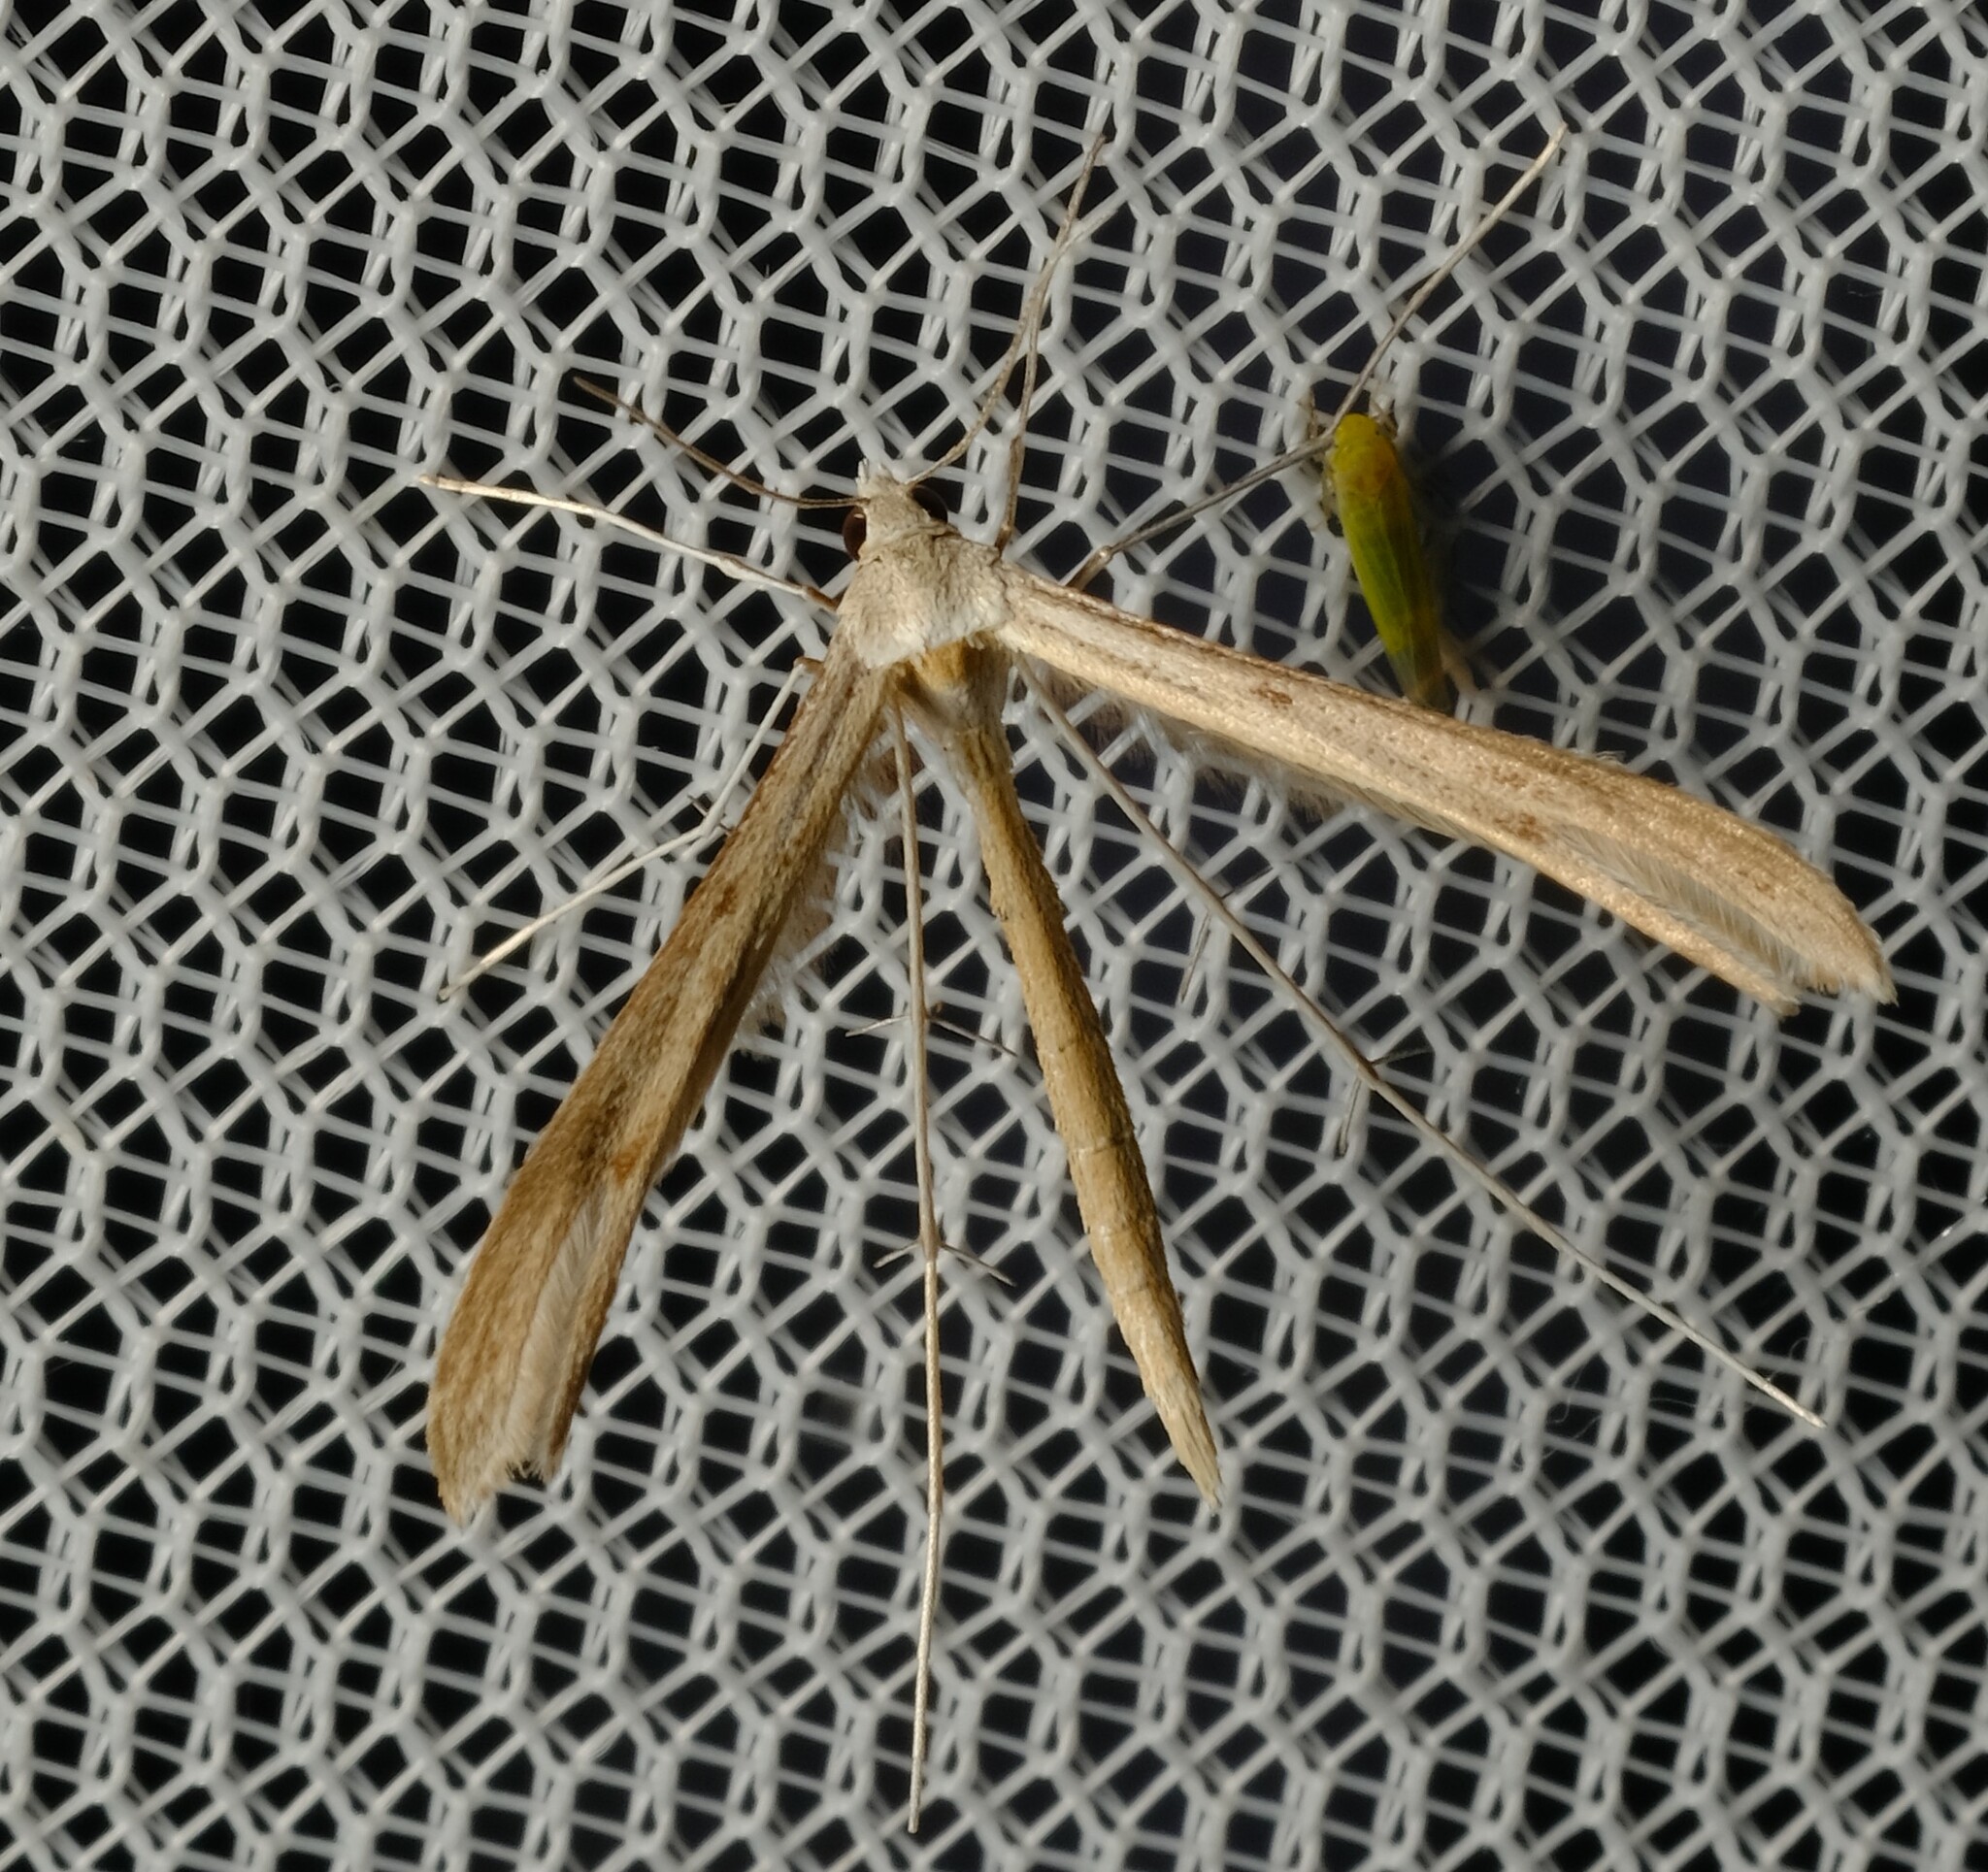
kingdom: Animalia
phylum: Arthropoda
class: Insecta
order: Lepidoptera
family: Pterophoridae
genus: Stenoptilia
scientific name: Stenoptilia zophodactylus
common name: Dowdy plume
